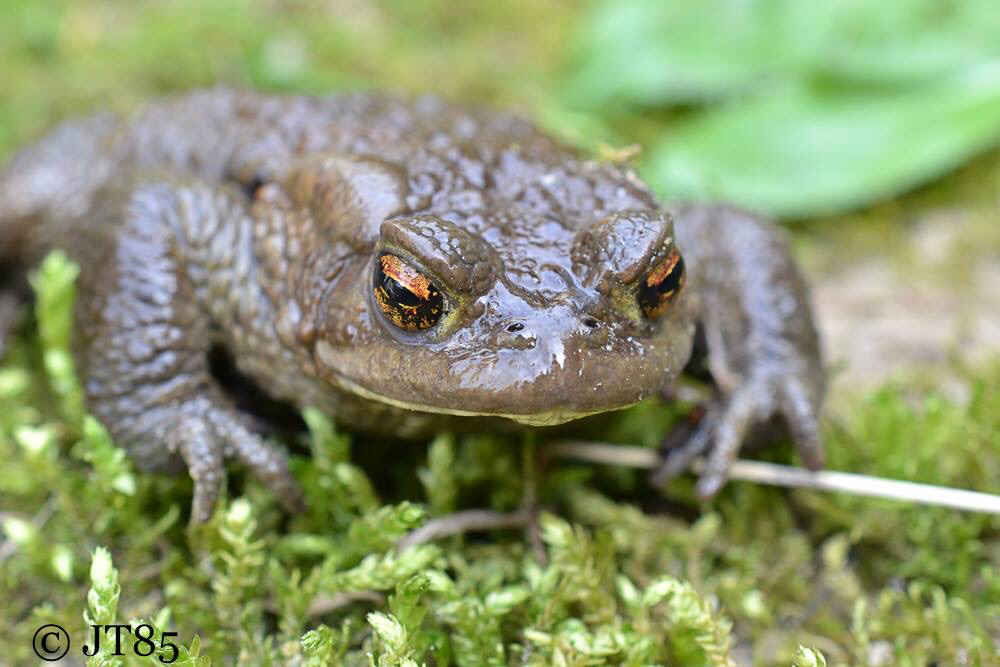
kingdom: Animalia
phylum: Chordata
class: Amphibia
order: Anura
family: Bufonidae
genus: Bufo
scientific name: Bufo bufo
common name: Common toad
